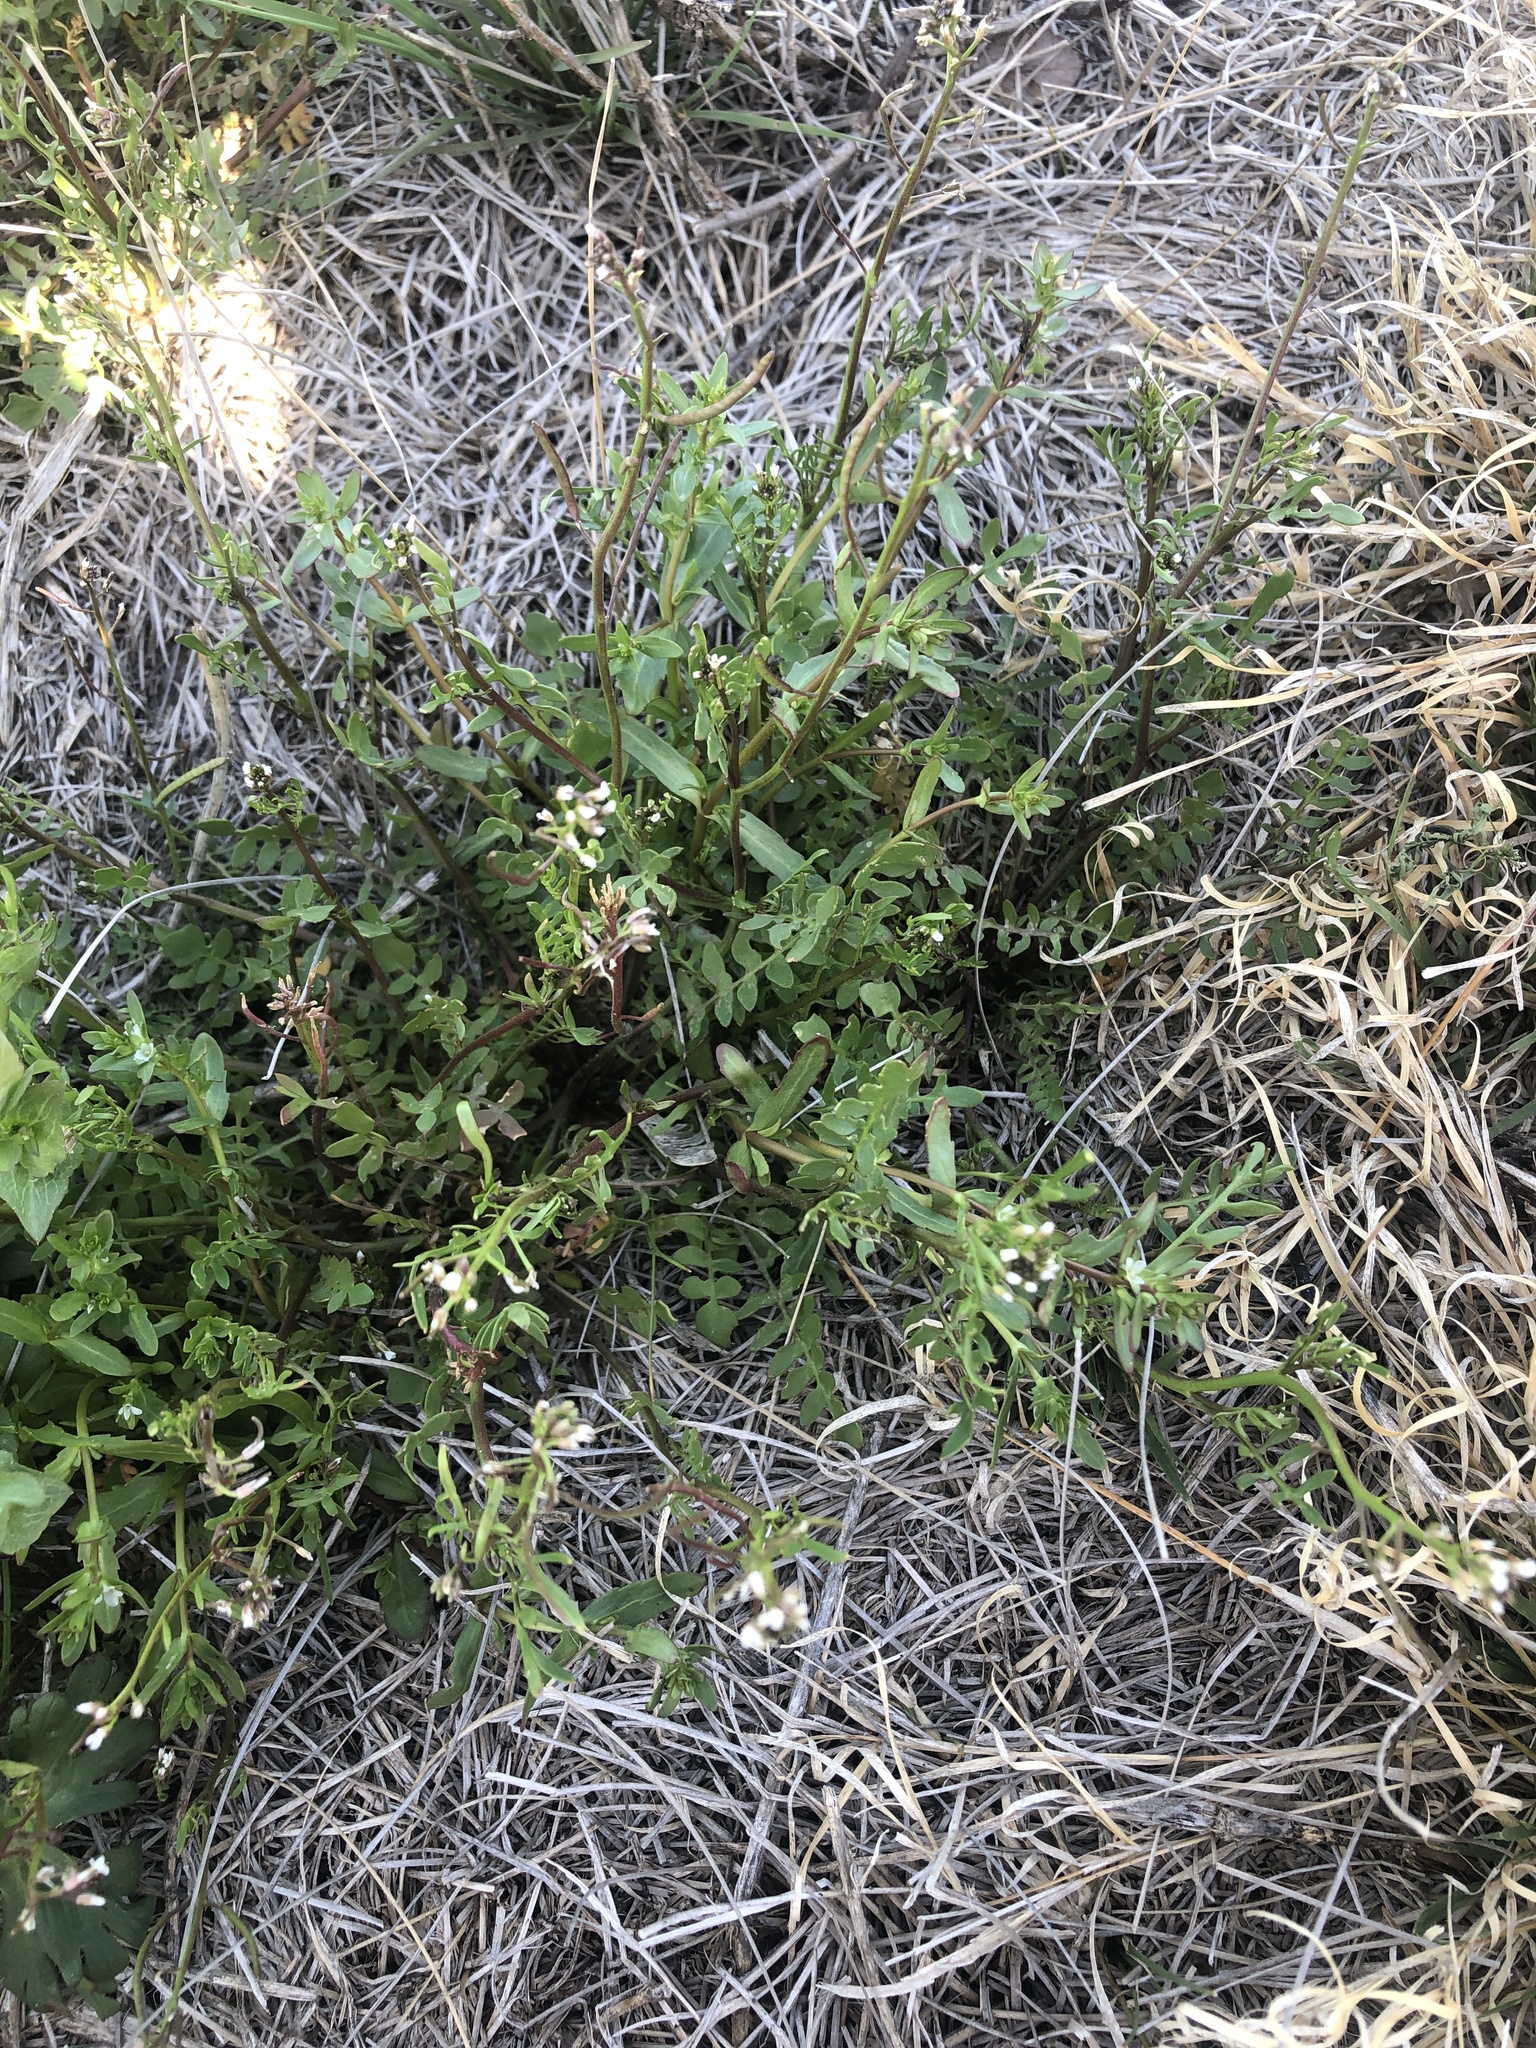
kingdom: Plantae
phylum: Tracheophyta
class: Magnoliopsida
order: Brassicales
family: Brassicaceae
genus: Cardamine
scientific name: Cardamine hirsuta
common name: Hairy bittercress
